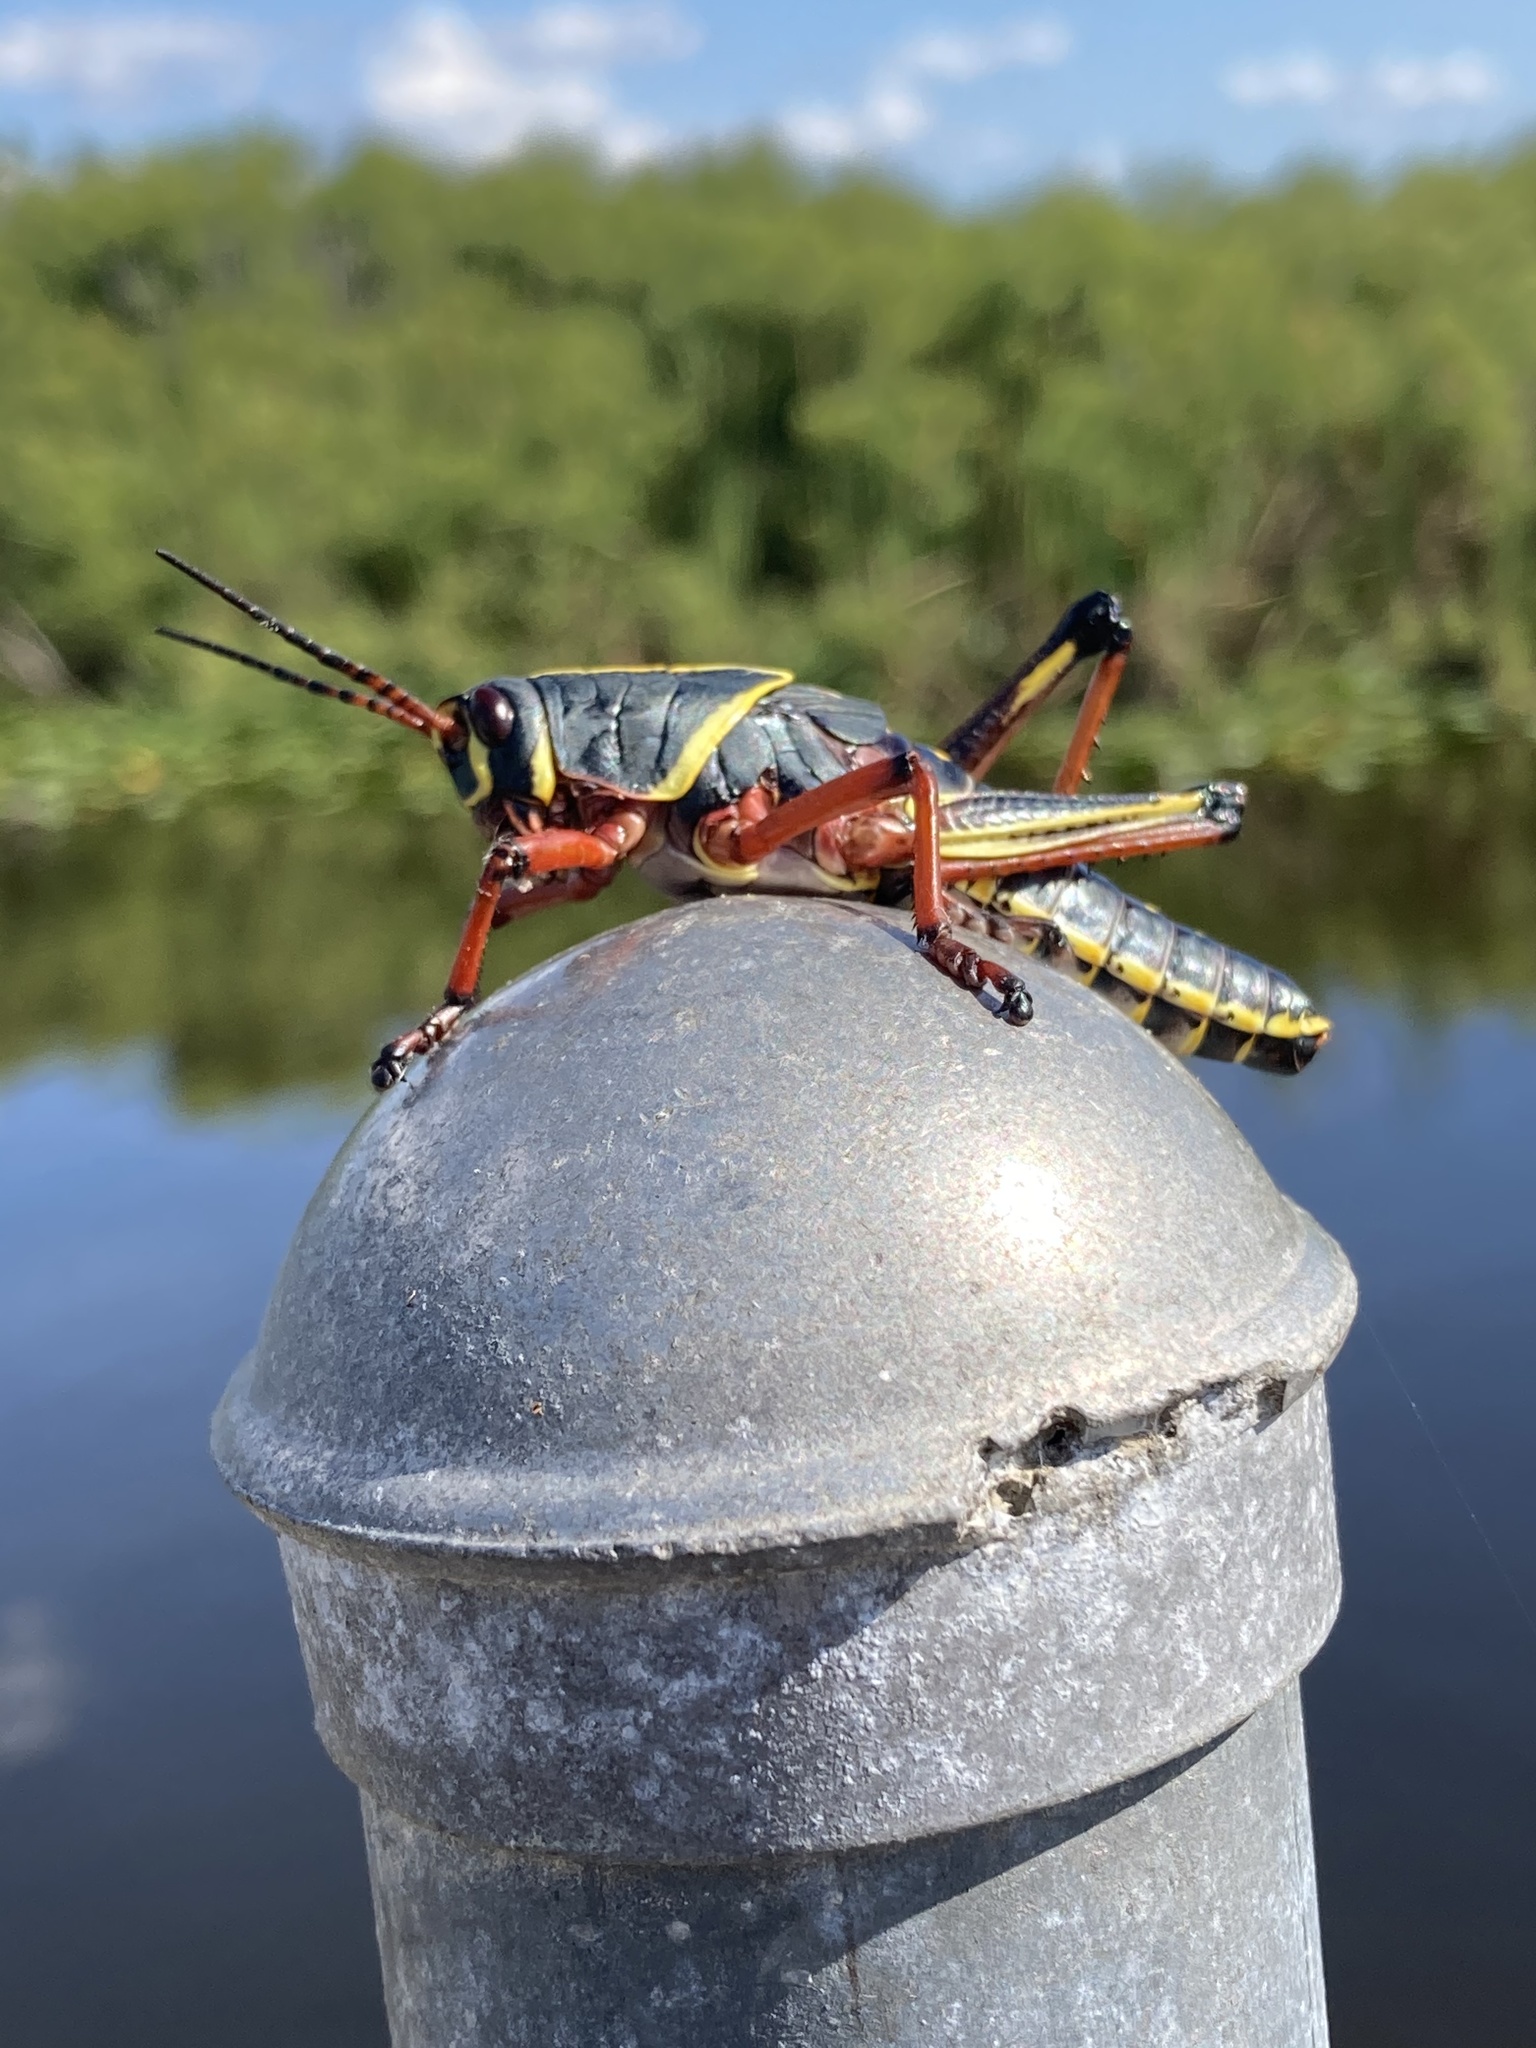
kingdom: Animalia
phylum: Arthropoda
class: Insecta
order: Orthoptera
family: Romaleidae
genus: Romalea
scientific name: Romalea microptera
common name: Eastern lubber grasshopper
